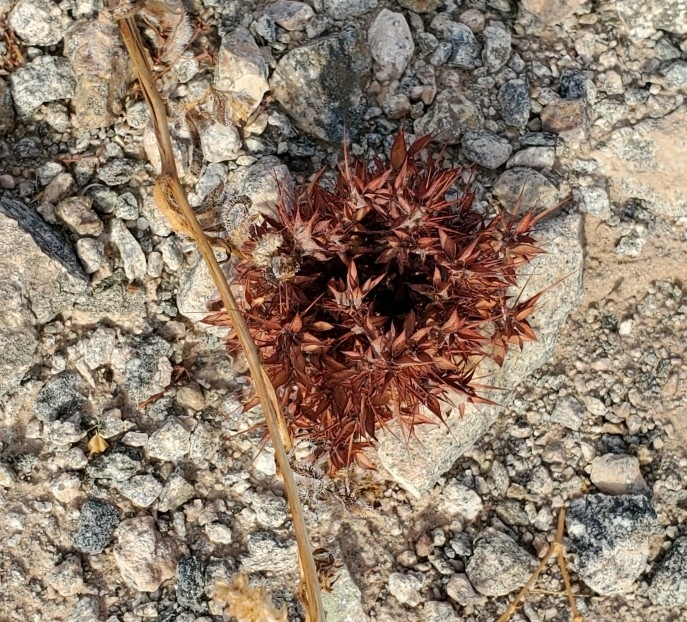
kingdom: Plantae
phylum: Tracheophyta
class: Magnoliopsida
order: Caryophyllales
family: Polygonaceae
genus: Chorizanthe
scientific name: Chorizanthe rigida
